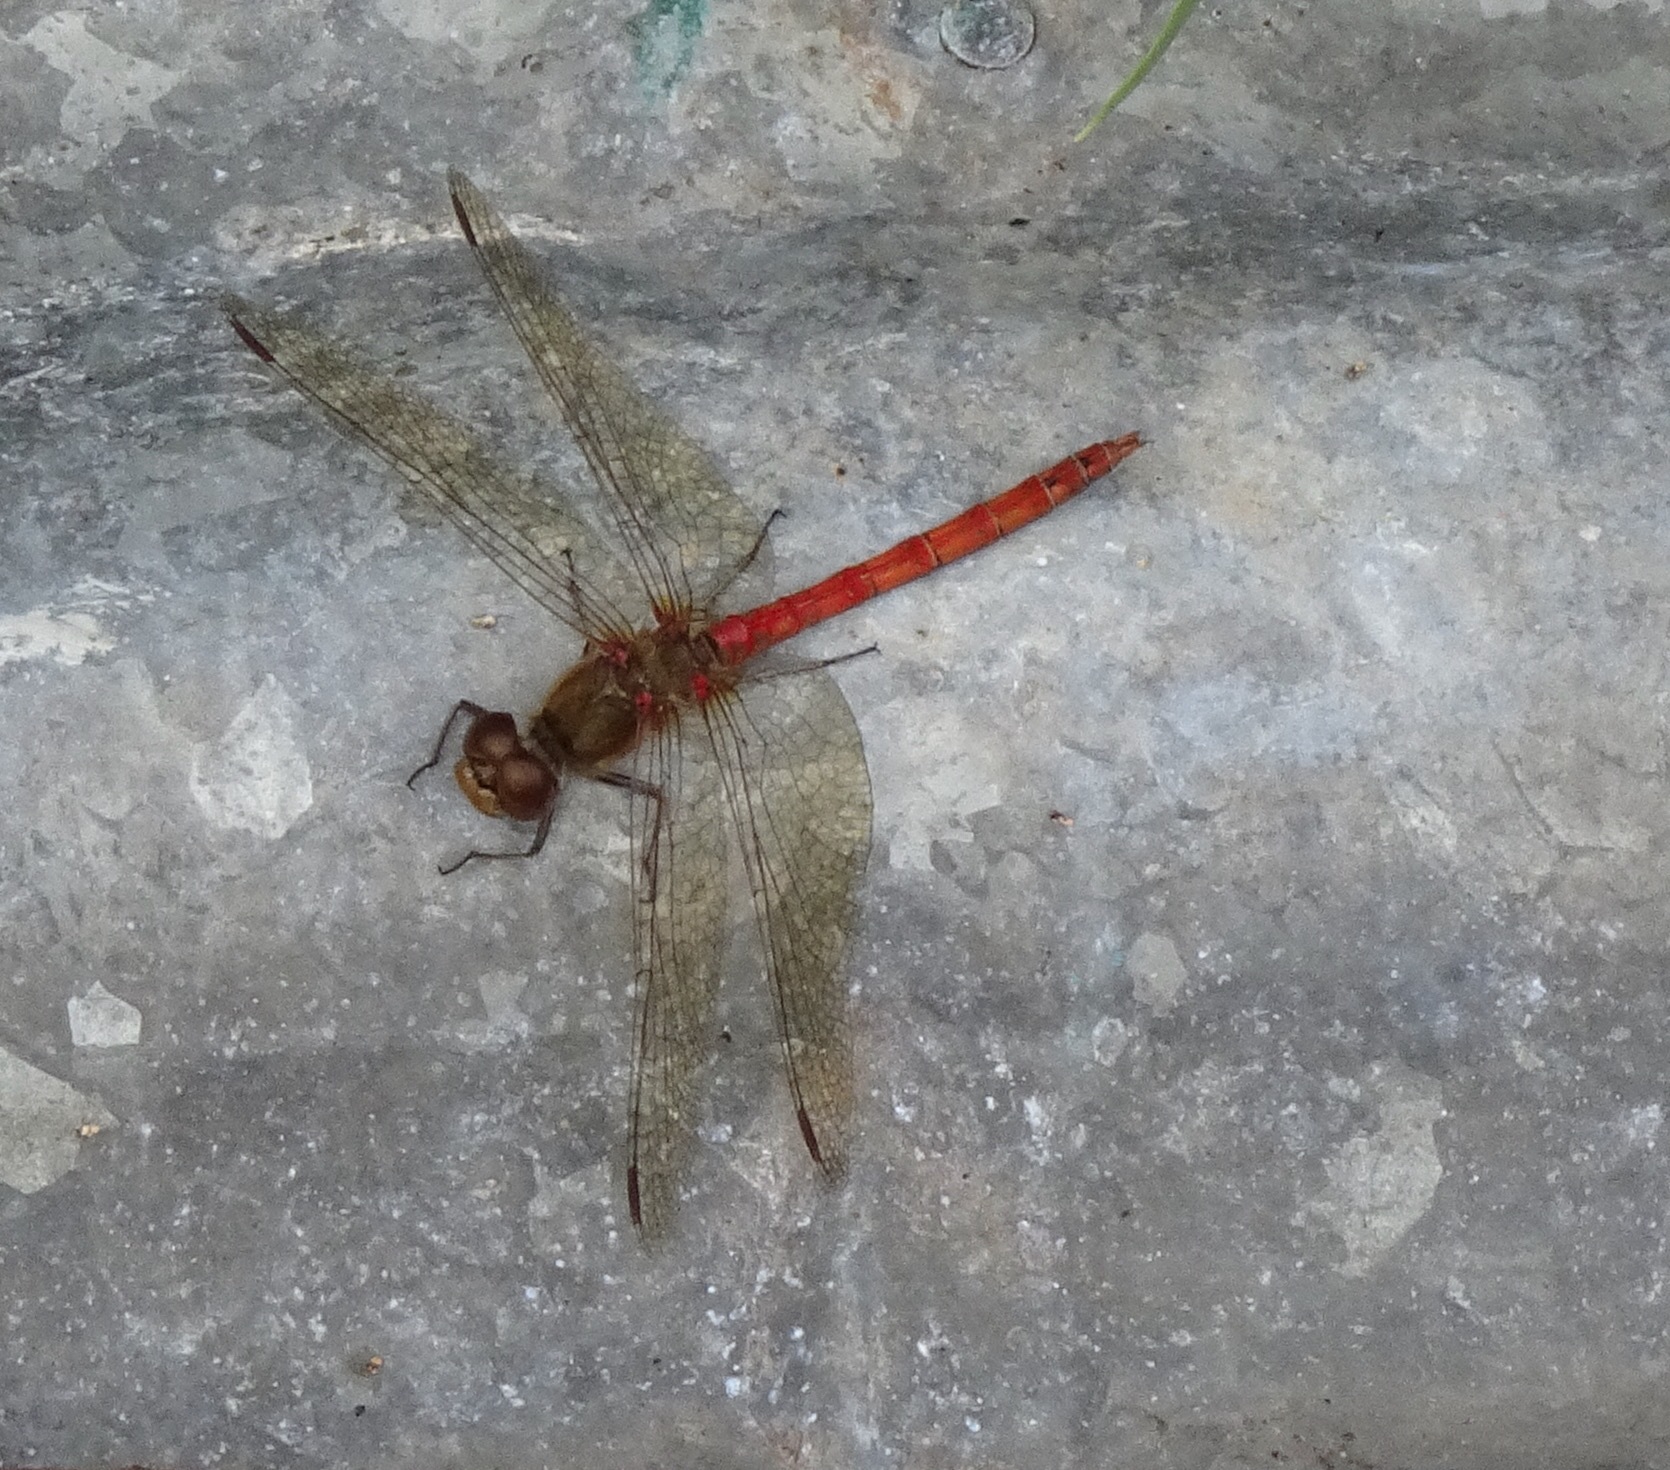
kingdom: Animalia
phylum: Arthropoda
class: Insecta
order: Odonata
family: Libellulidae
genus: Sympetrum
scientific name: Sympetrum striolatum
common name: Common darter
